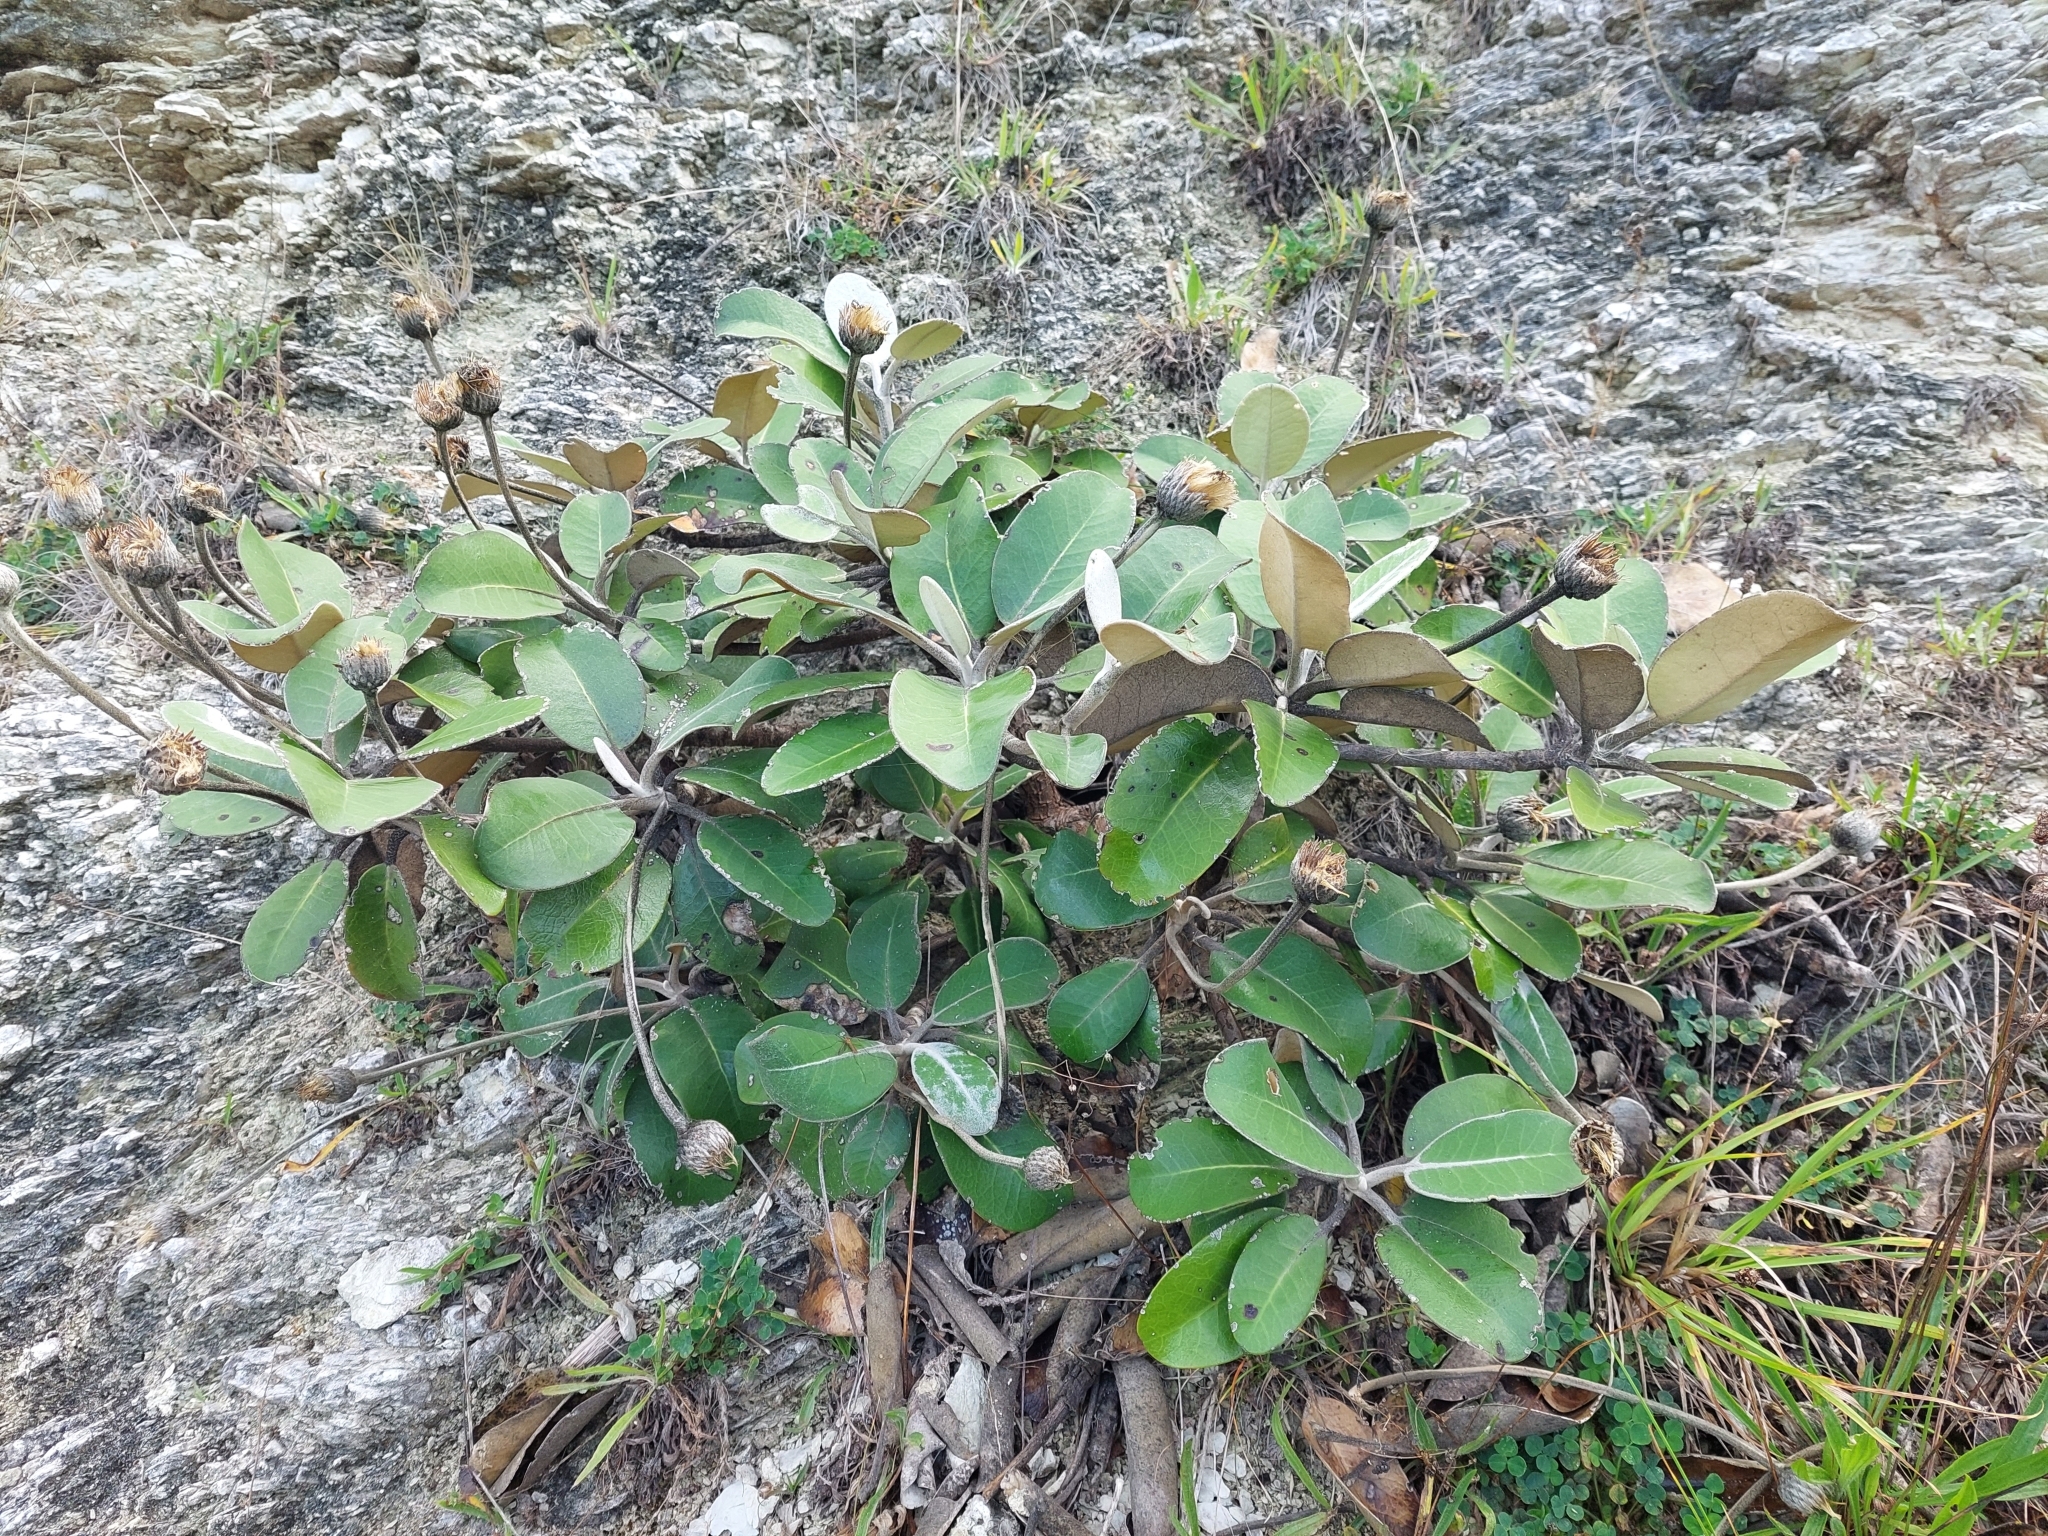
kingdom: Plantae
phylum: Tracheophyta
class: Magnoliopsida
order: Asterales
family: Asteraceae
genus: Pachystegia
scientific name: Pachystegia insignis
